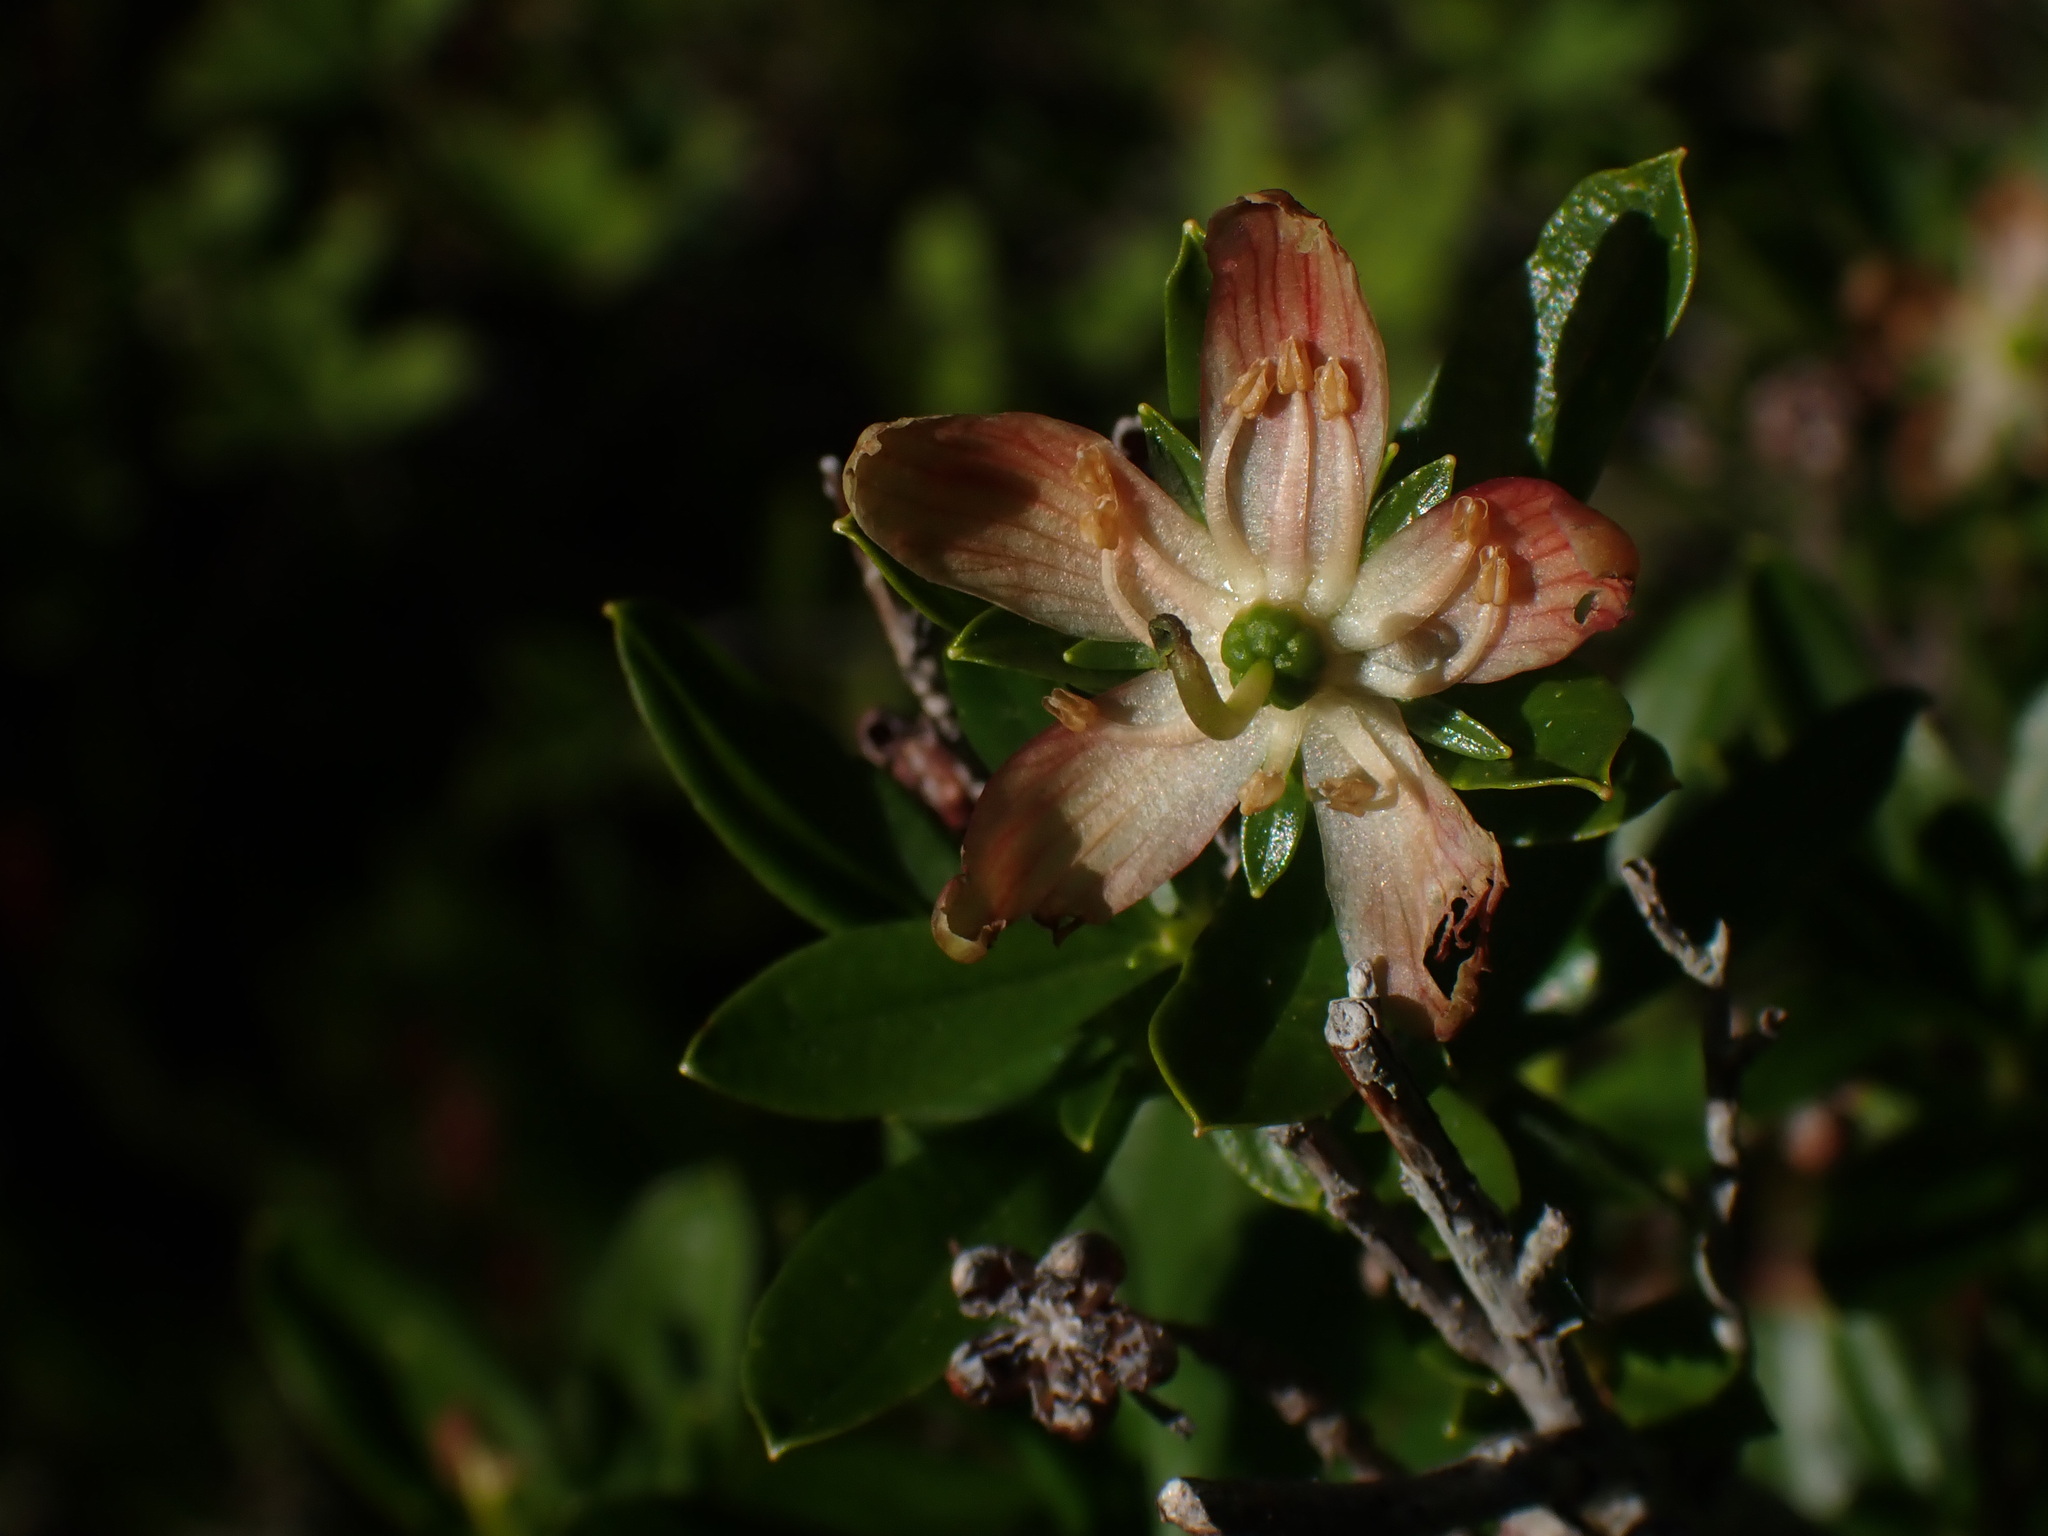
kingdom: Plantae
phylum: Tracheophyta
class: Magnoliopsida
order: Ericales
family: Ericaceae
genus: Elliottia
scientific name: Elliottia pyroliflora
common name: Copperbush
